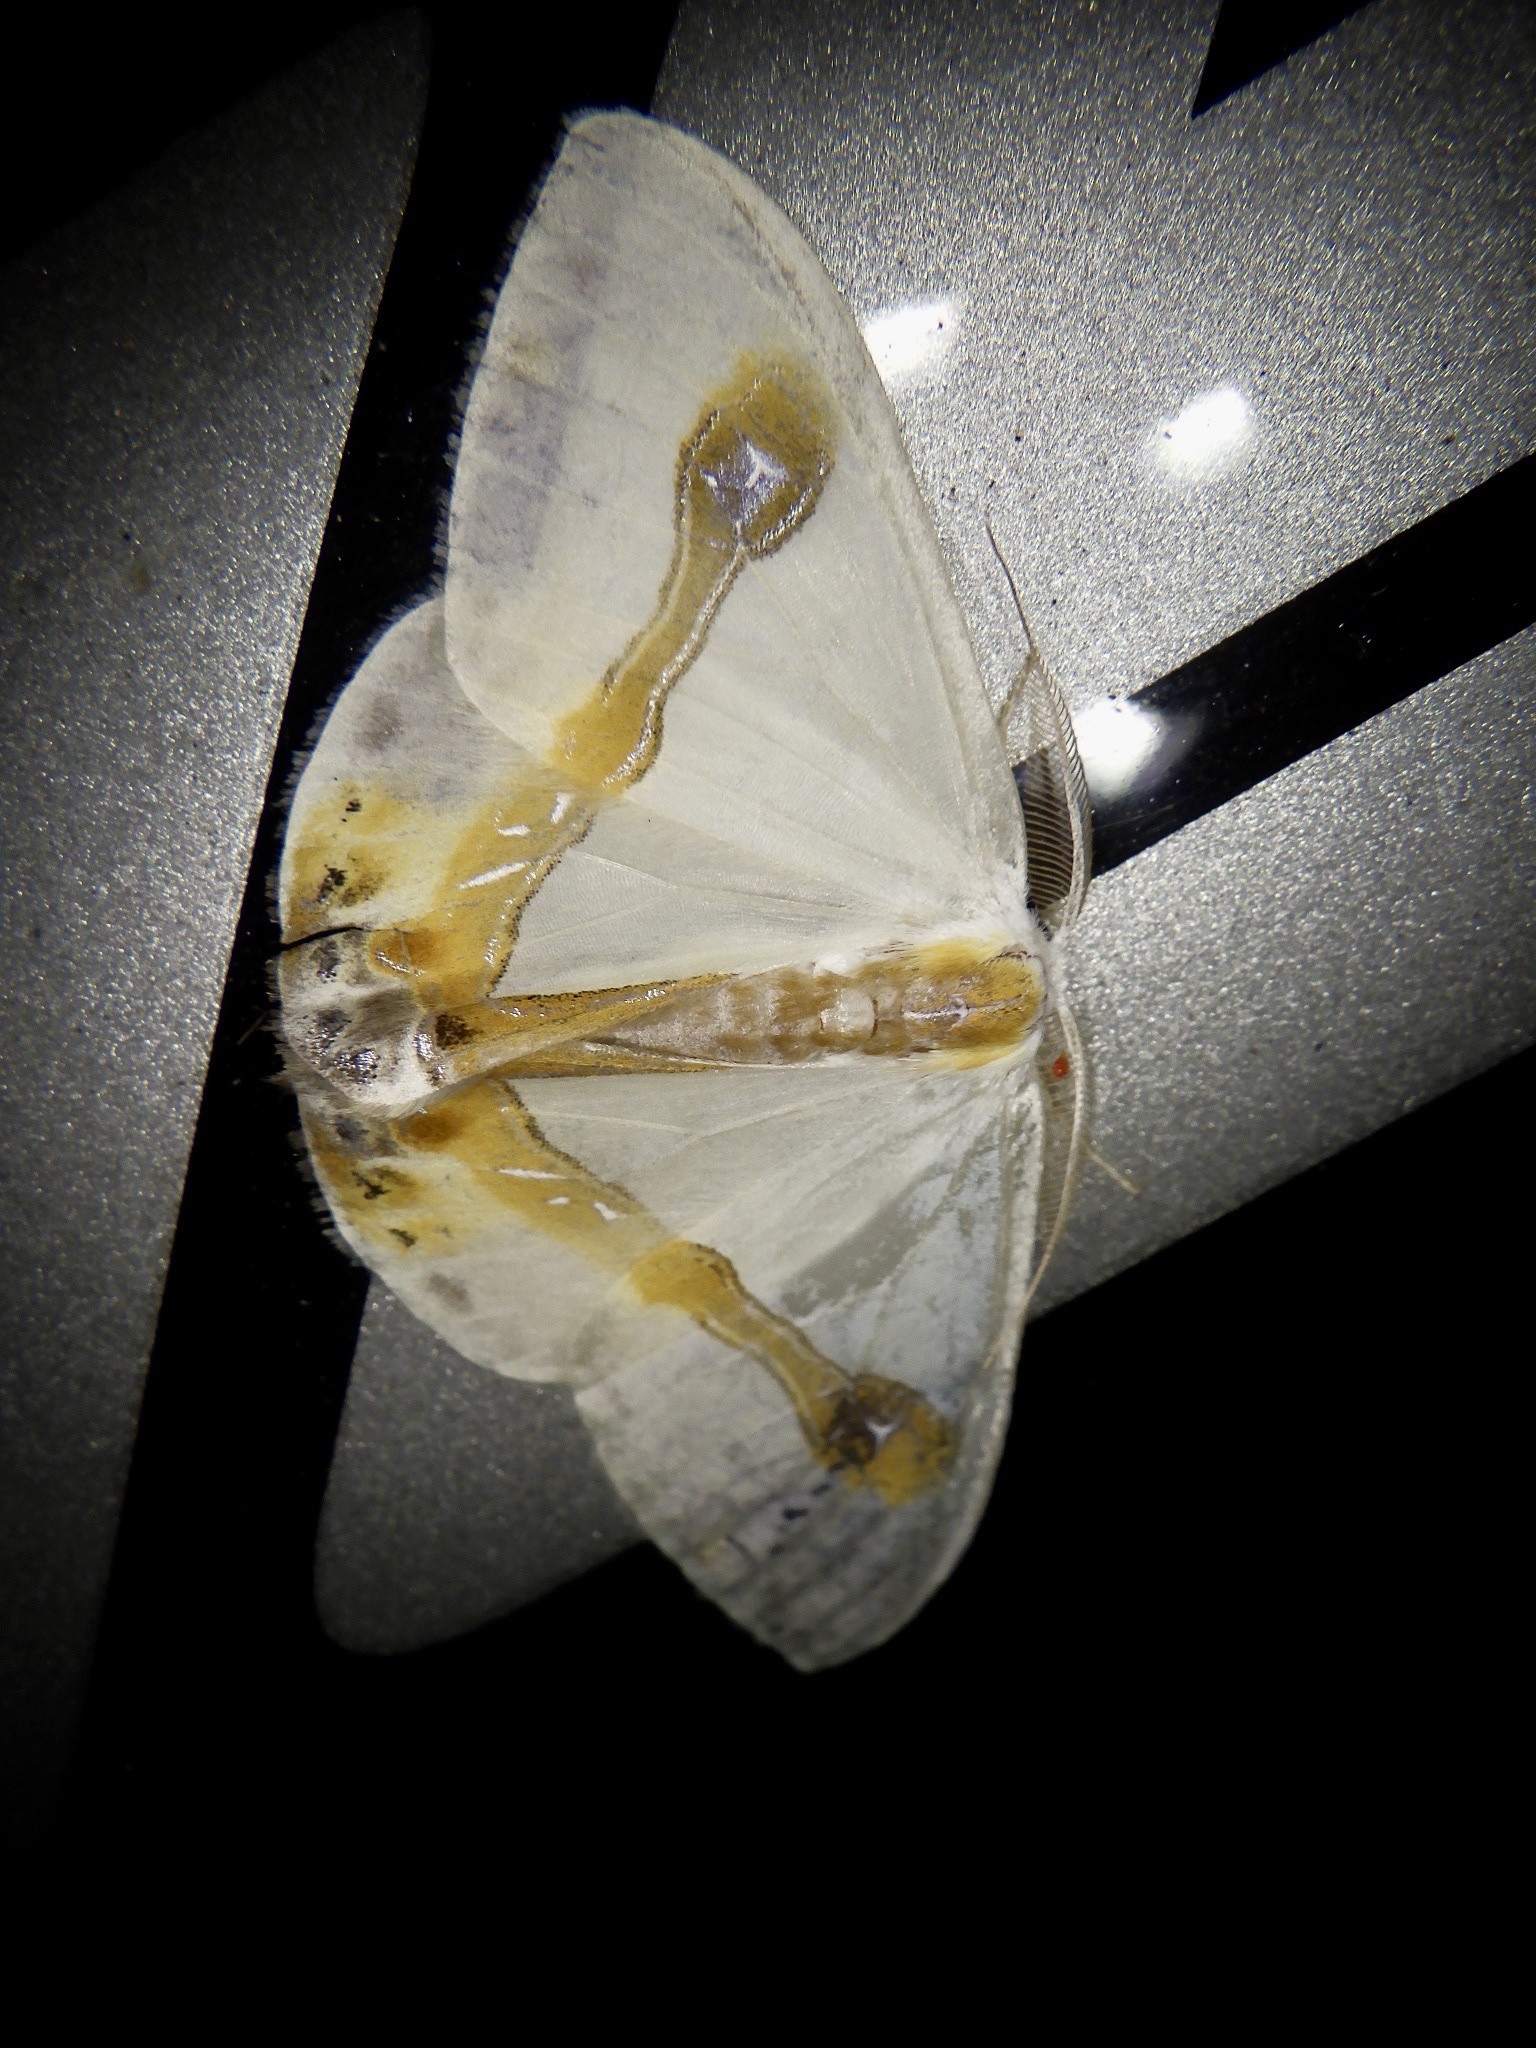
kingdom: Animalia
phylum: Arthropoda
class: Insecta
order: Lepidoptera
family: Drepanidae
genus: Macrocilix
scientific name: Macrocilix mysticata
